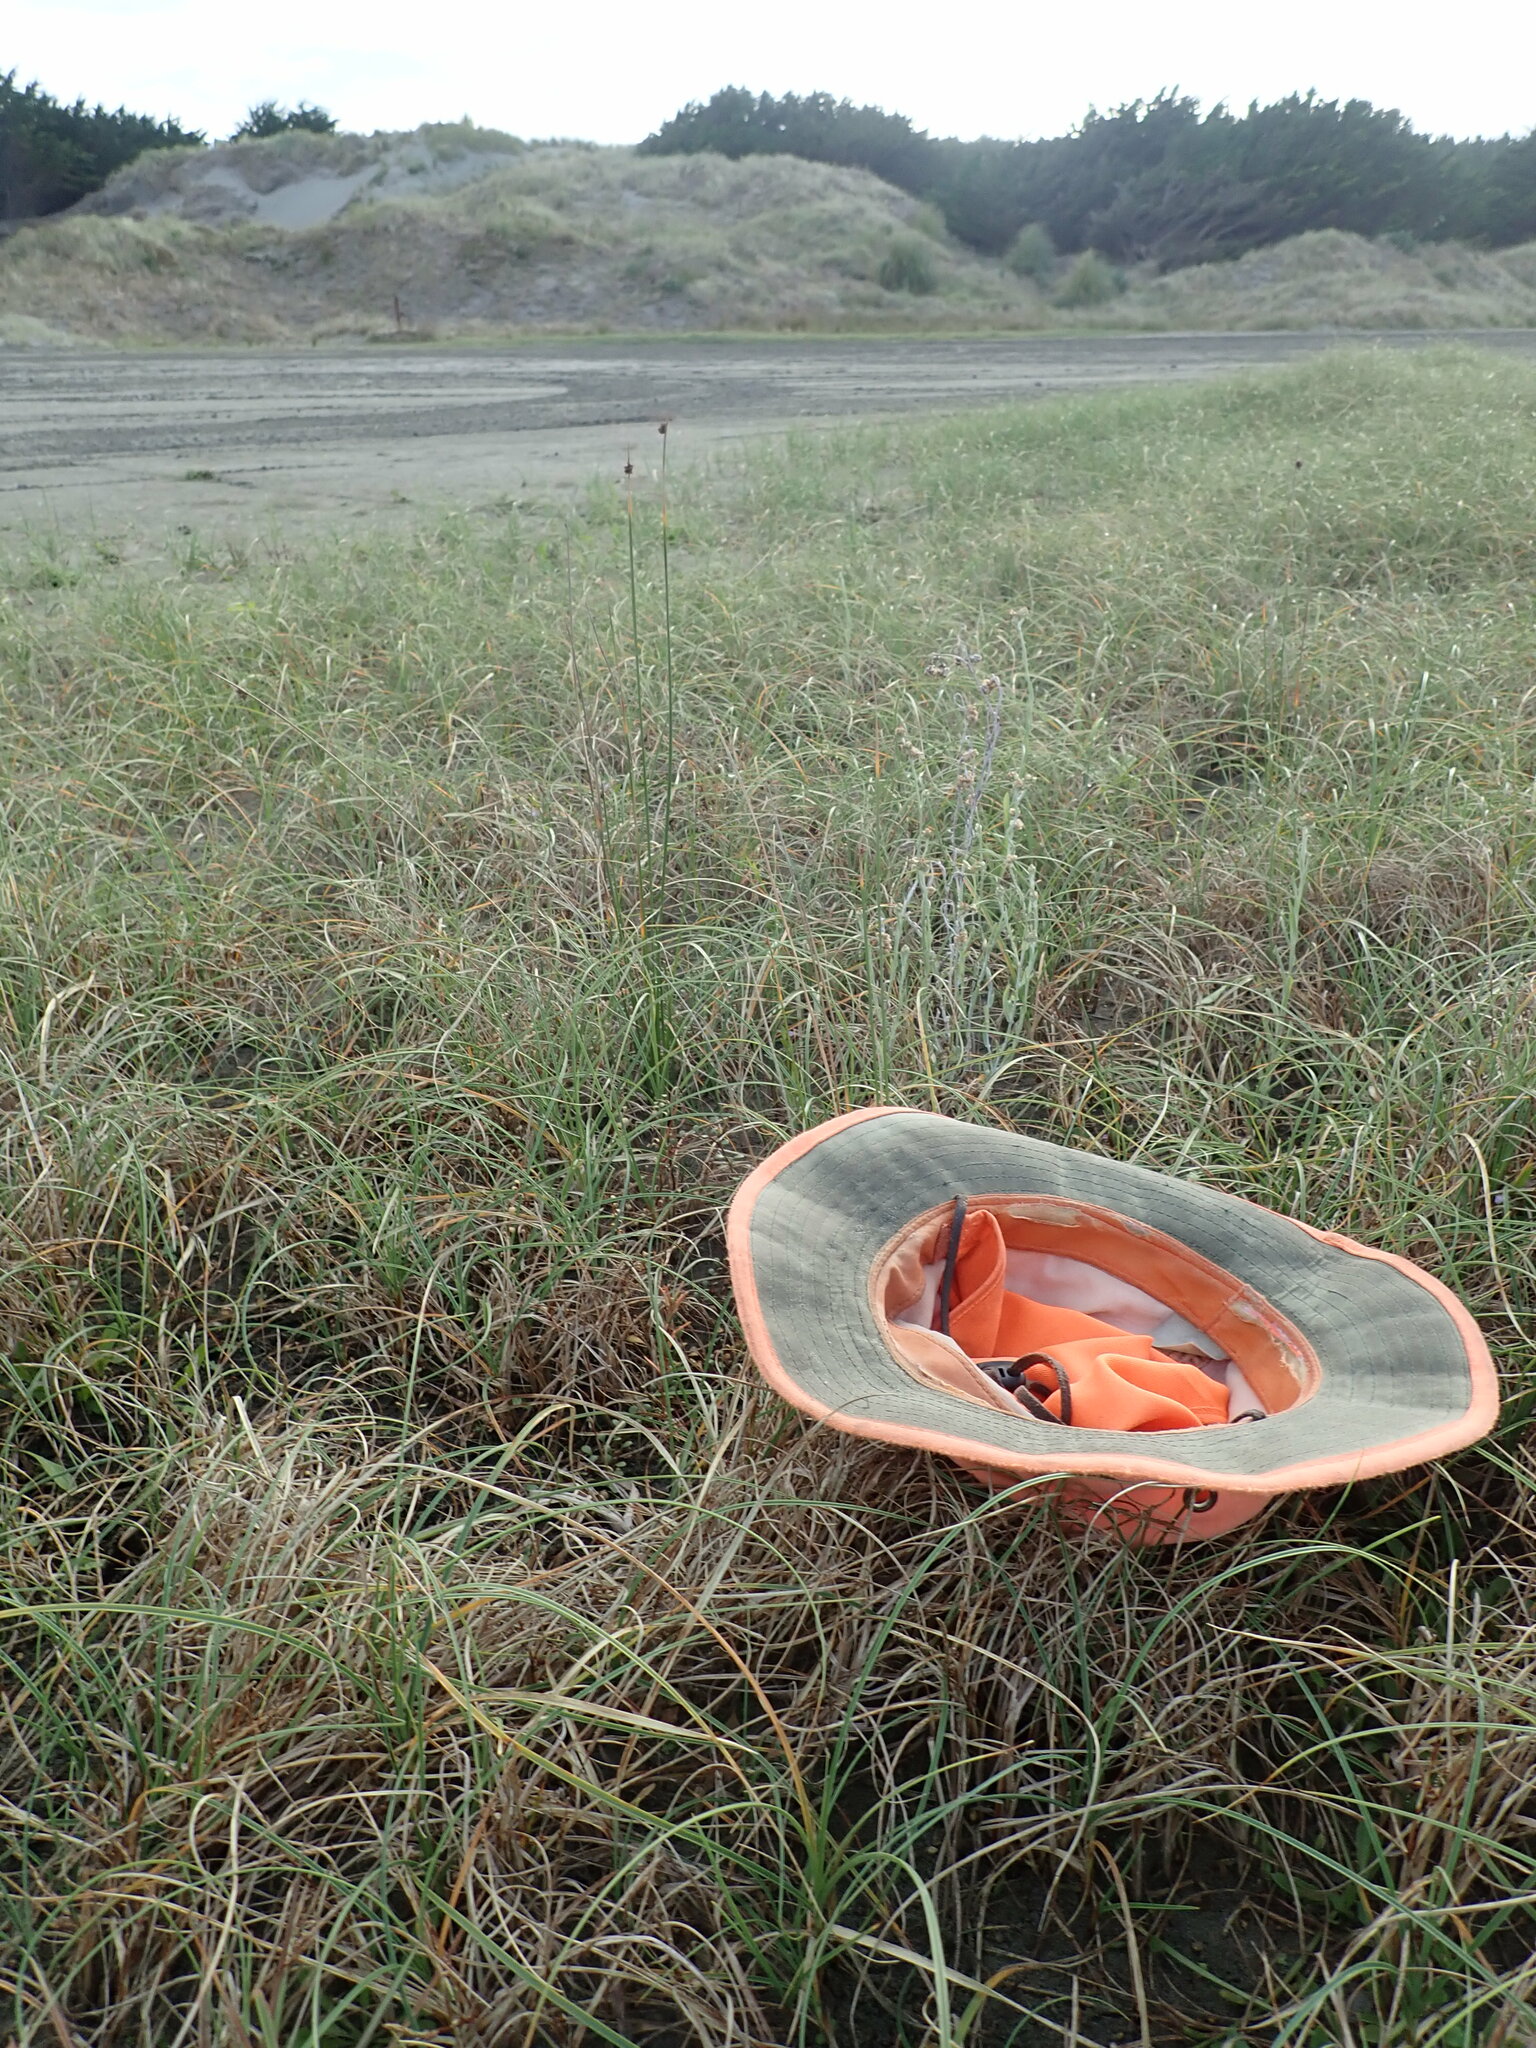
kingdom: Plantae
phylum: Tracheophyta
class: Magnoliopsida
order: Gentianales
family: Rubiaceae
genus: Coprosma
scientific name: Coprosma acerosa
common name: Sand coprosma
